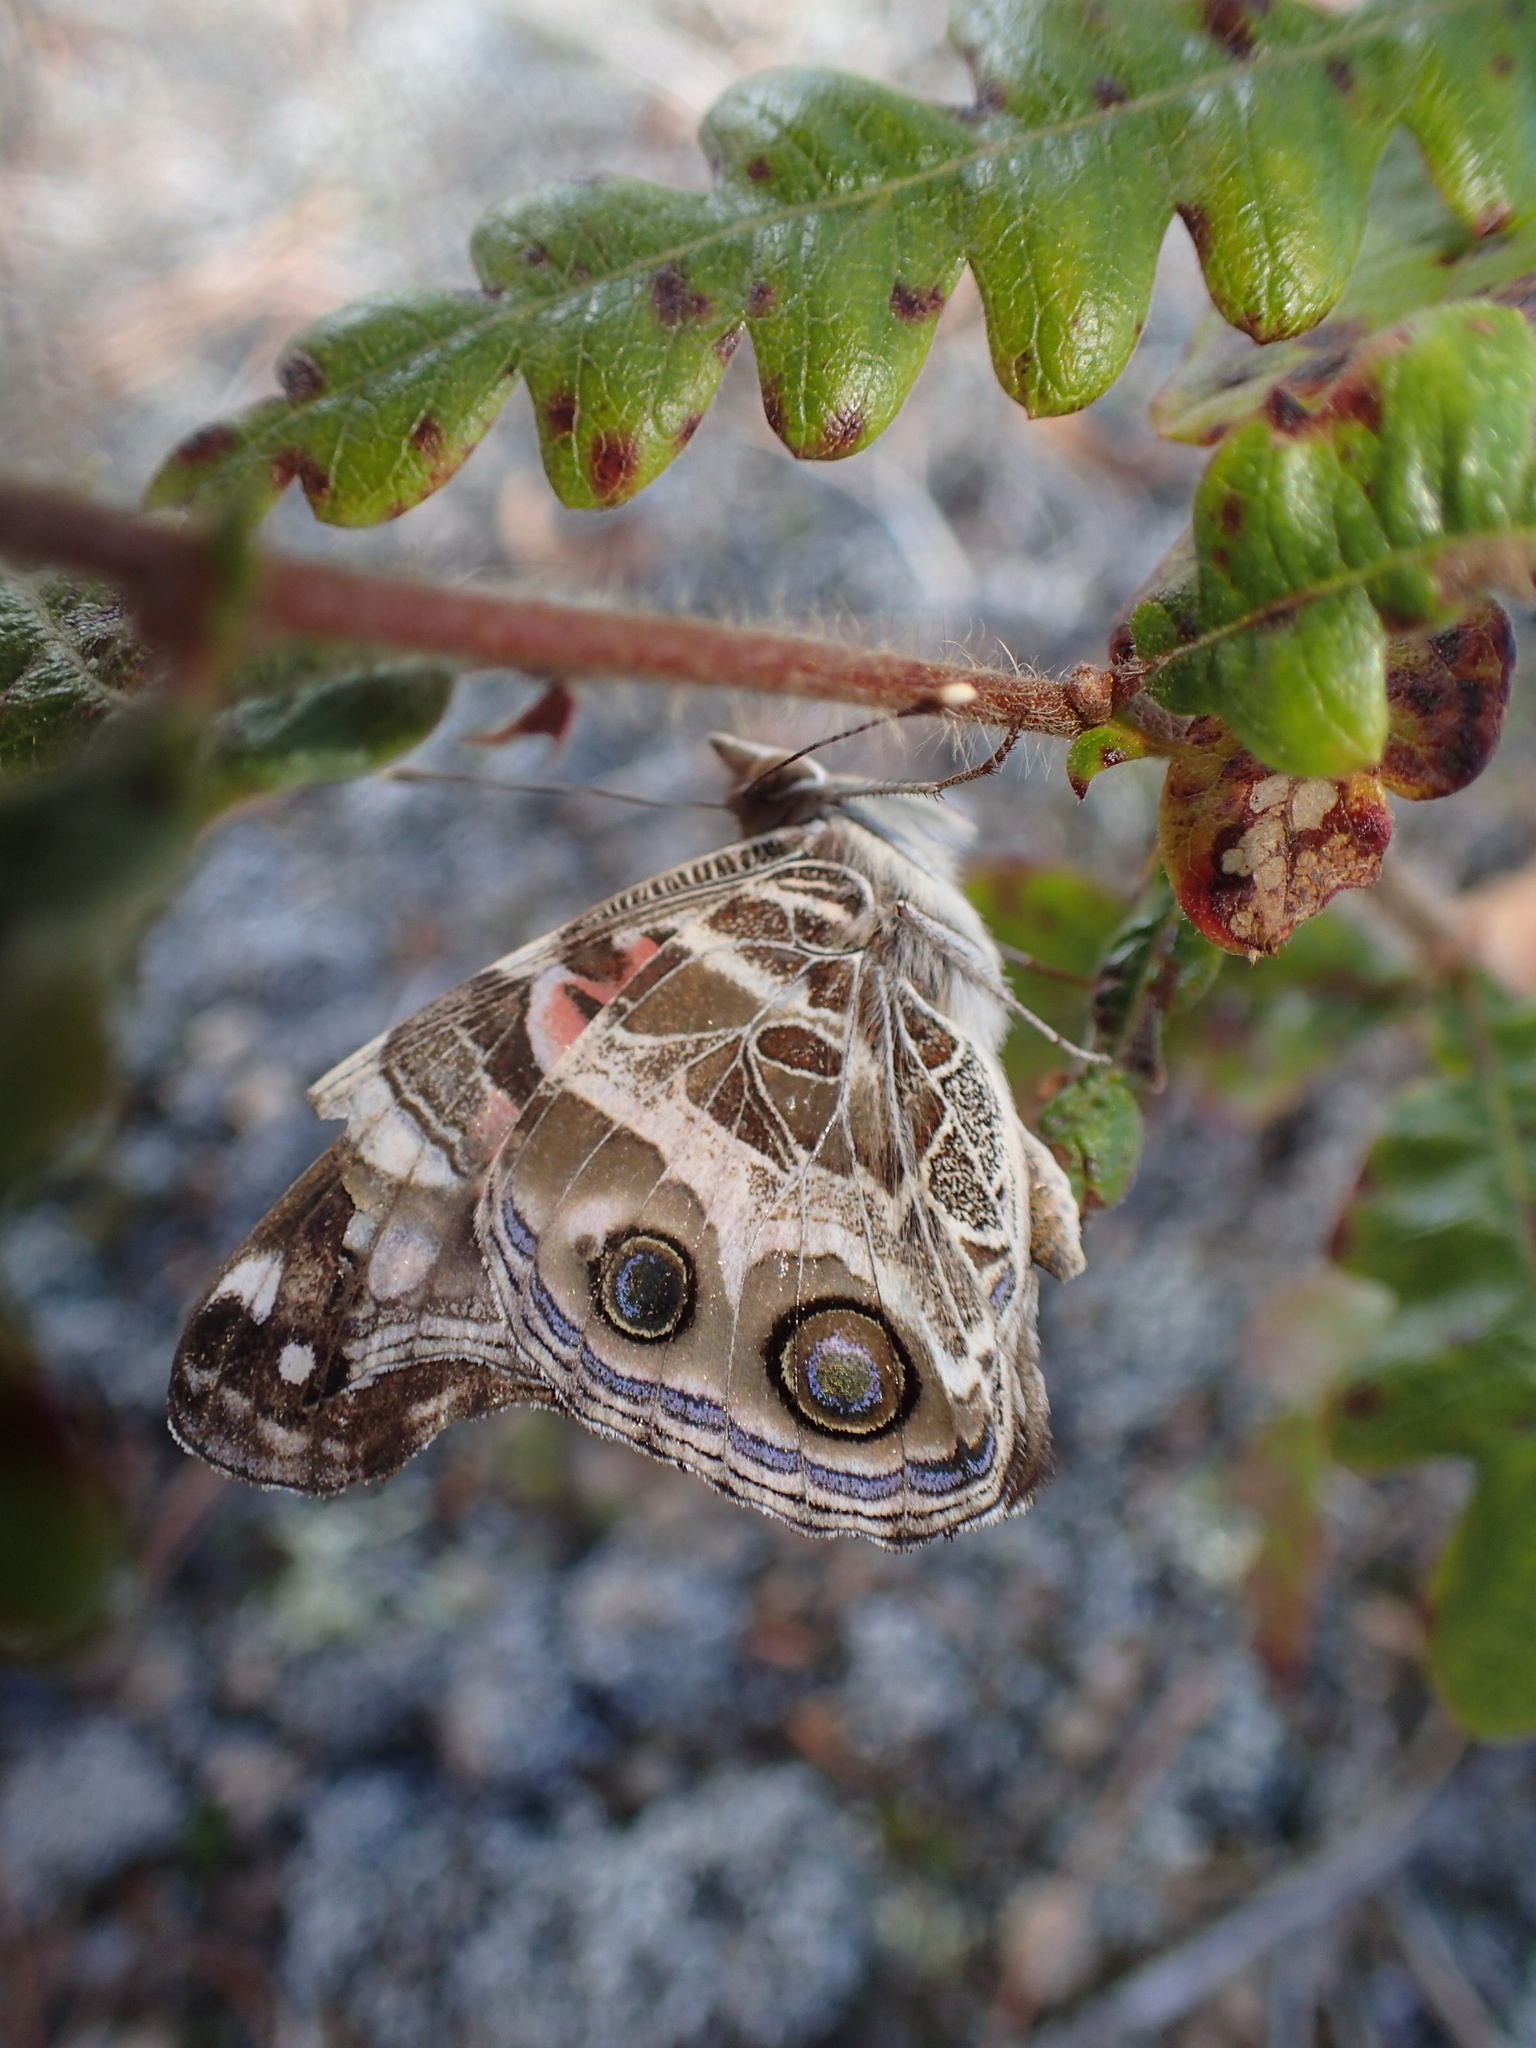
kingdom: Animalia
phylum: Arthropoda
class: Insecta
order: Lepidoptera
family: Nymphalidae
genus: Vanessa
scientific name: Vanessa virginiensis
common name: American lady
